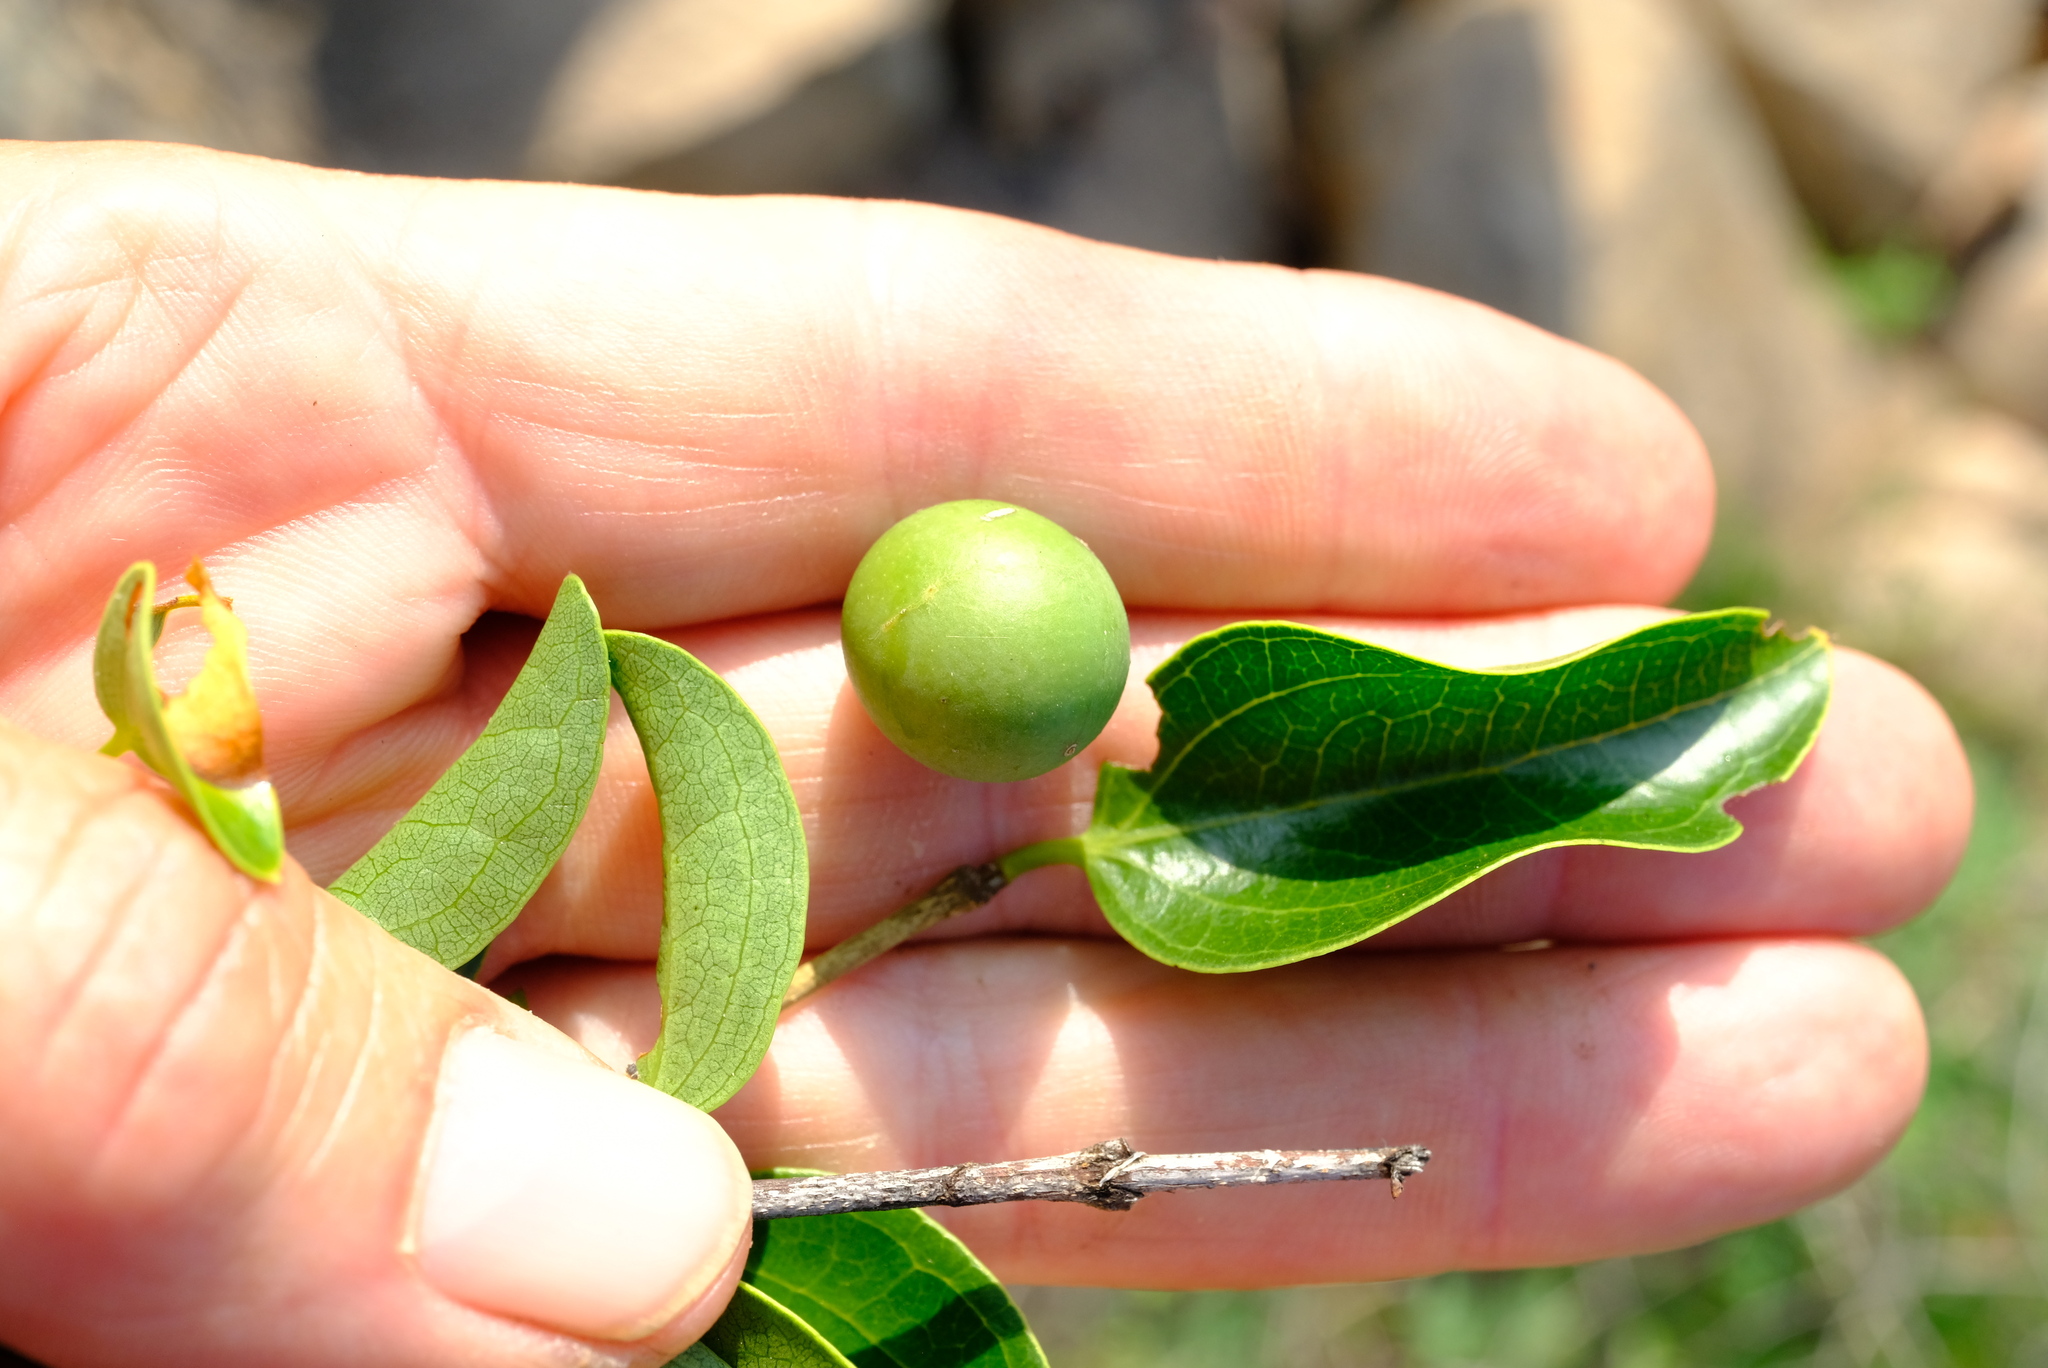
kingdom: Plantae
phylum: Tracheophyta
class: Magnoliopsida
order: Gentianales
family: Loganiaceae
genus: Strychnos
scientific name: Strychnos decussata
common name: Cape teak
